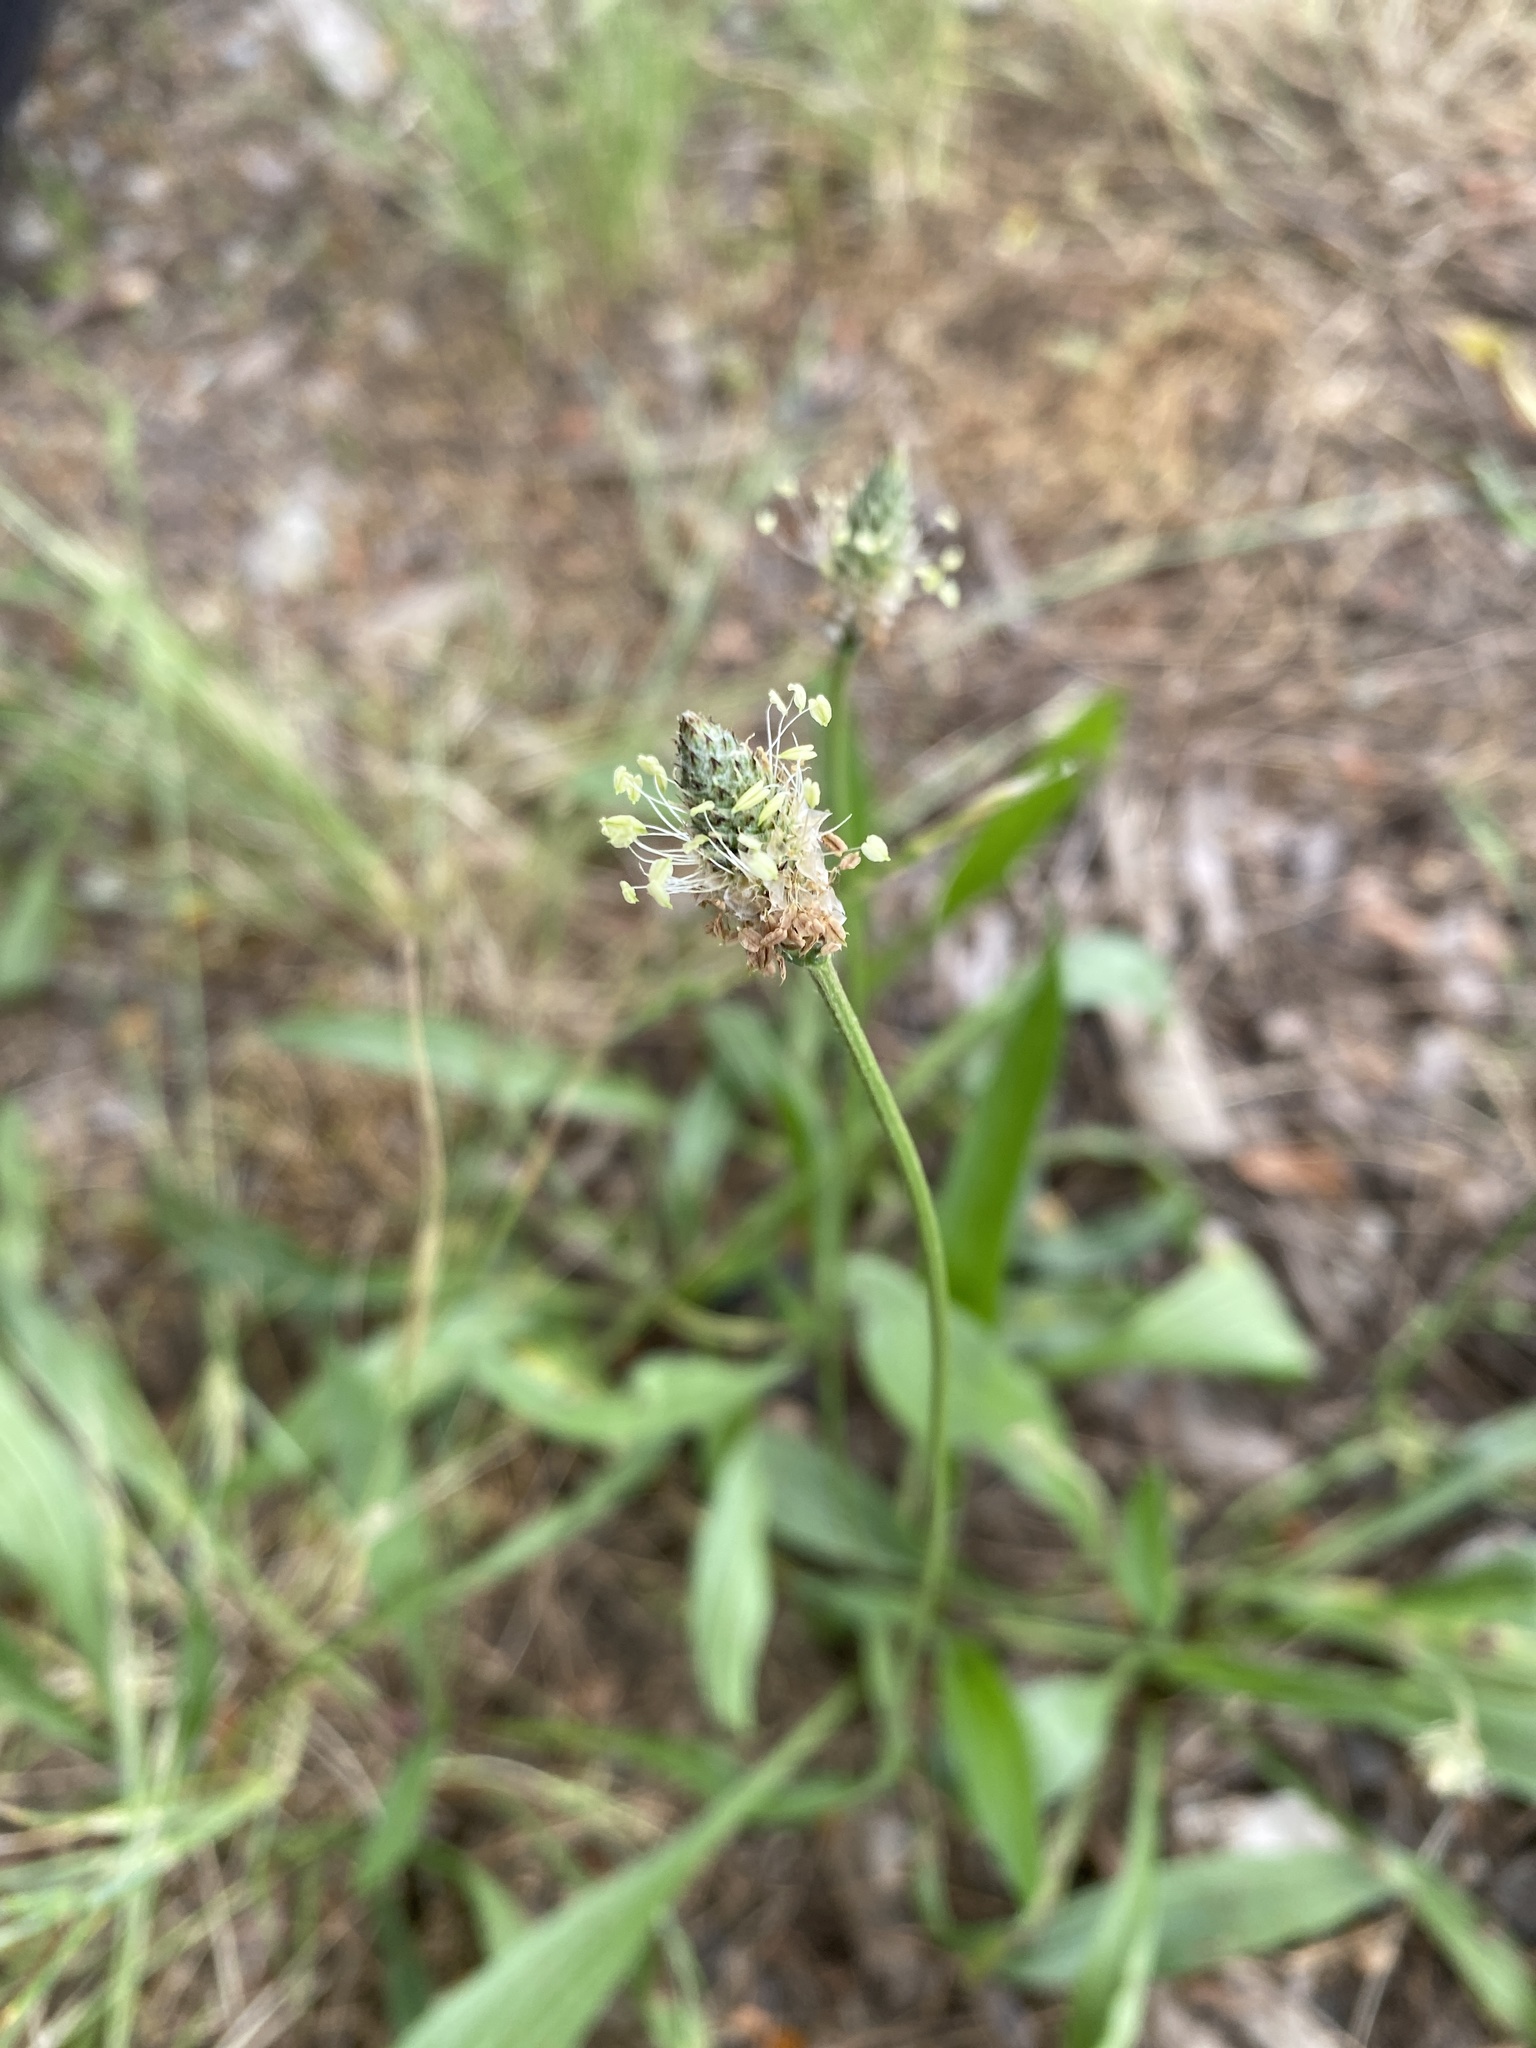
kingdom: Plantae
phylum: Tracheophyta
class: Magnoliopsida
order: Lamiales
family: Plantaginaceae
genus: Plantago
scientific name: Plantago lanceolata
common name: Ribwort plantain
